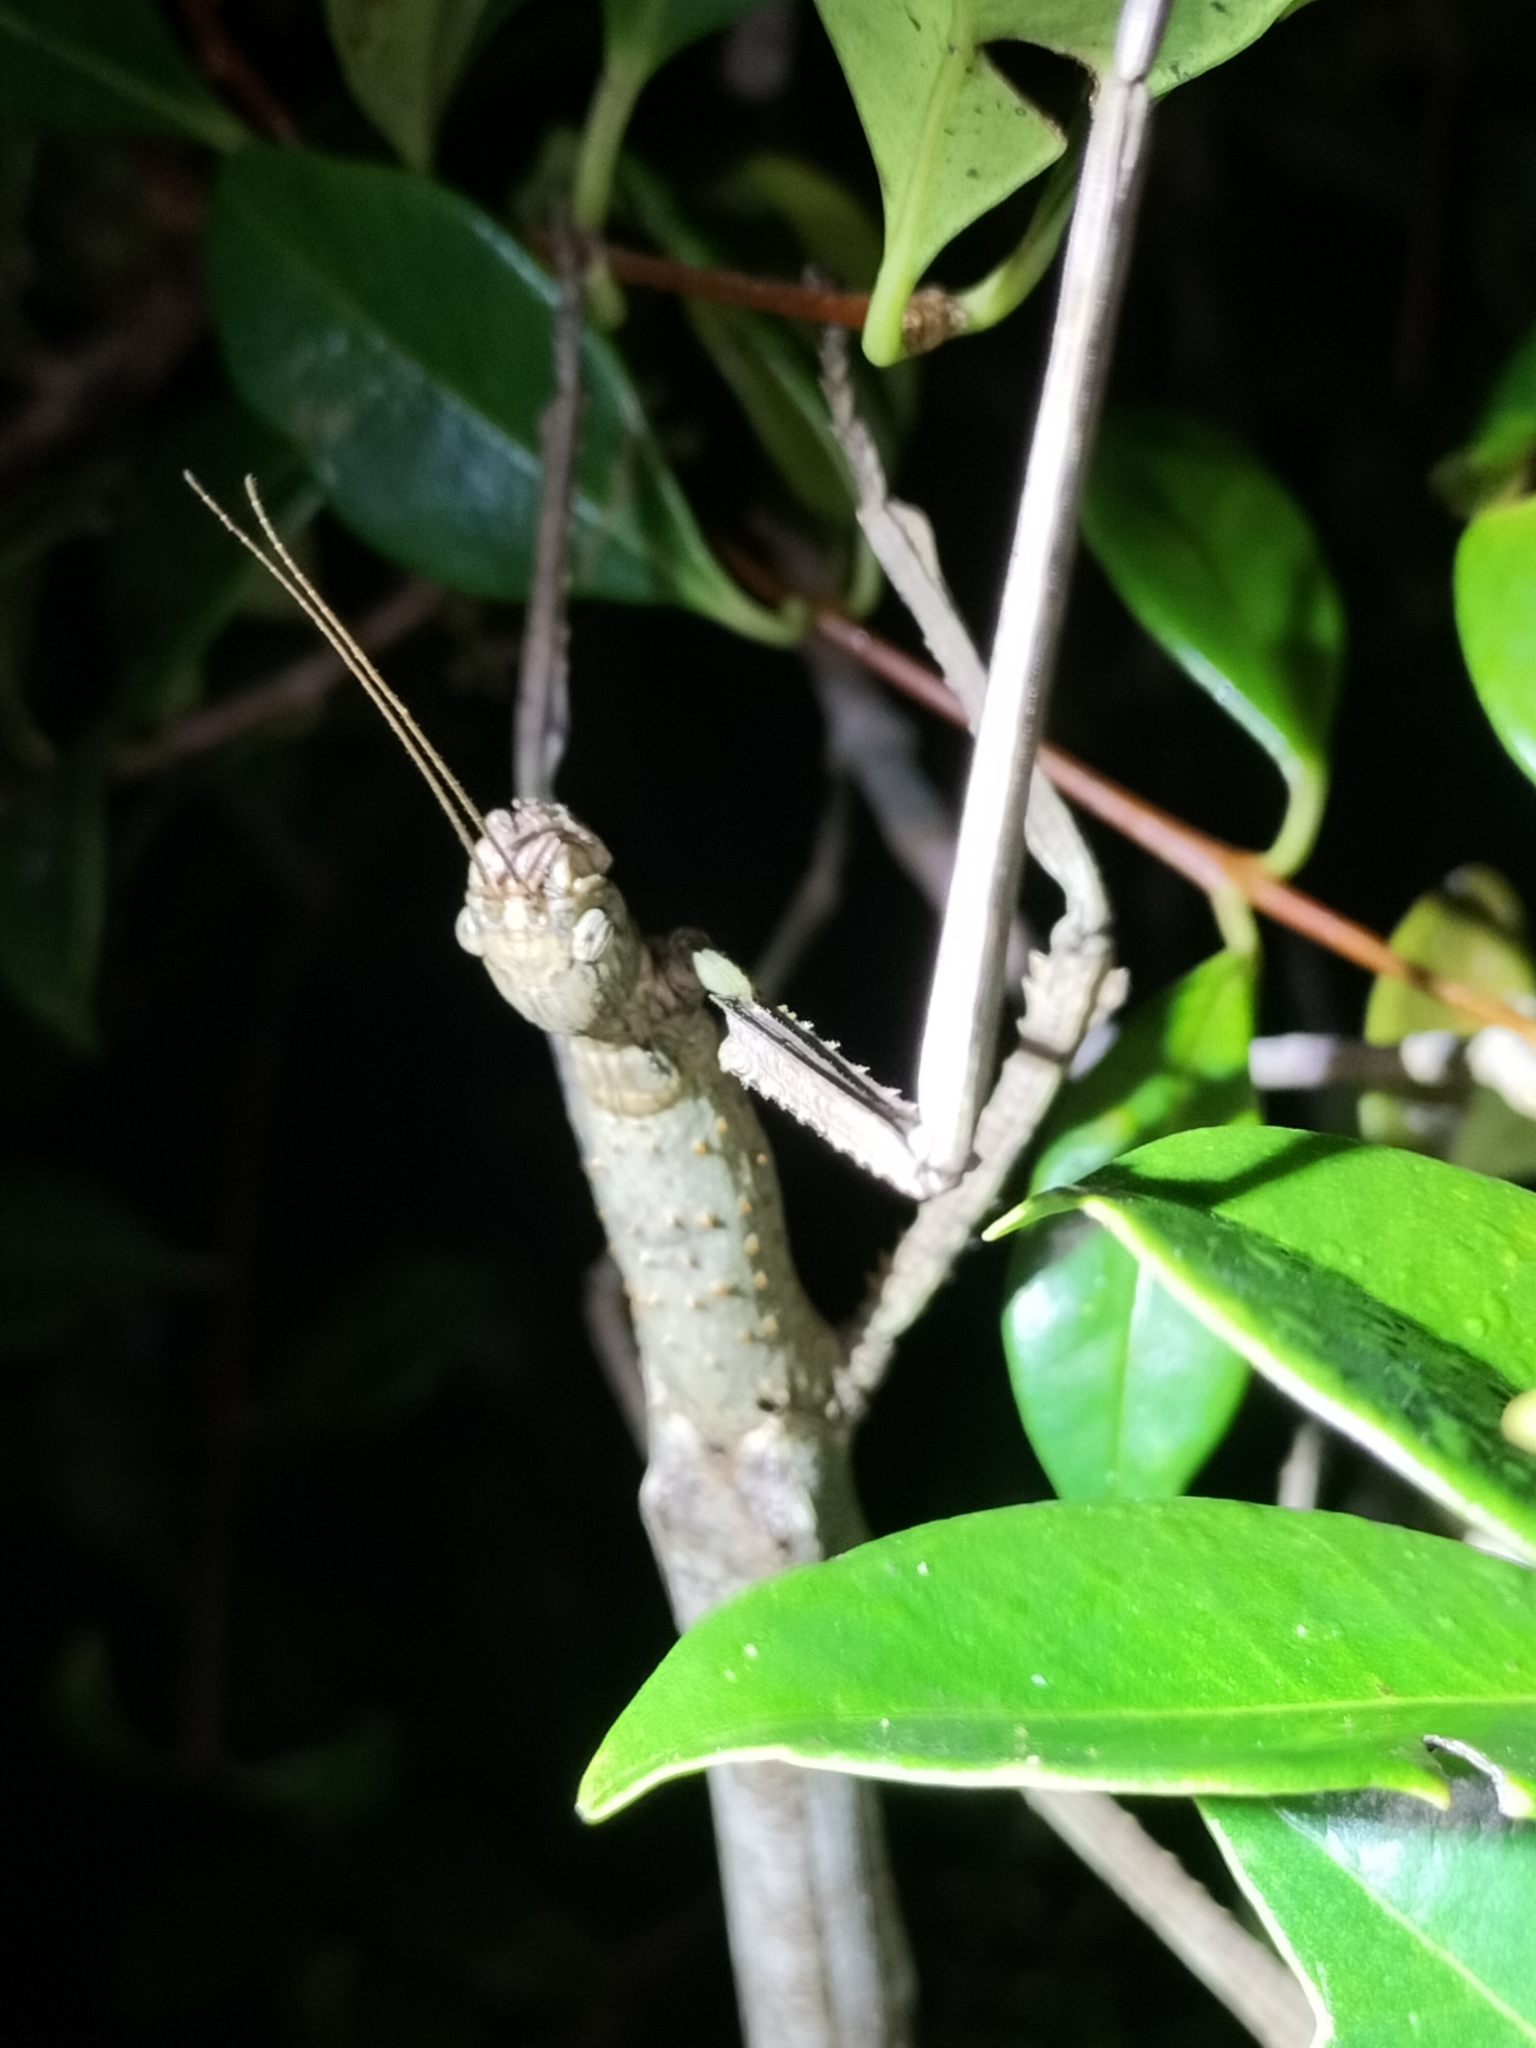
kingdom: Animalia
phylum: Arthropoda
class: Insecta
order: Phasmida
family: Phasmatidae
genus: Anchiale
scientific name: Anchiale briareus
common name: Strong stick insect
